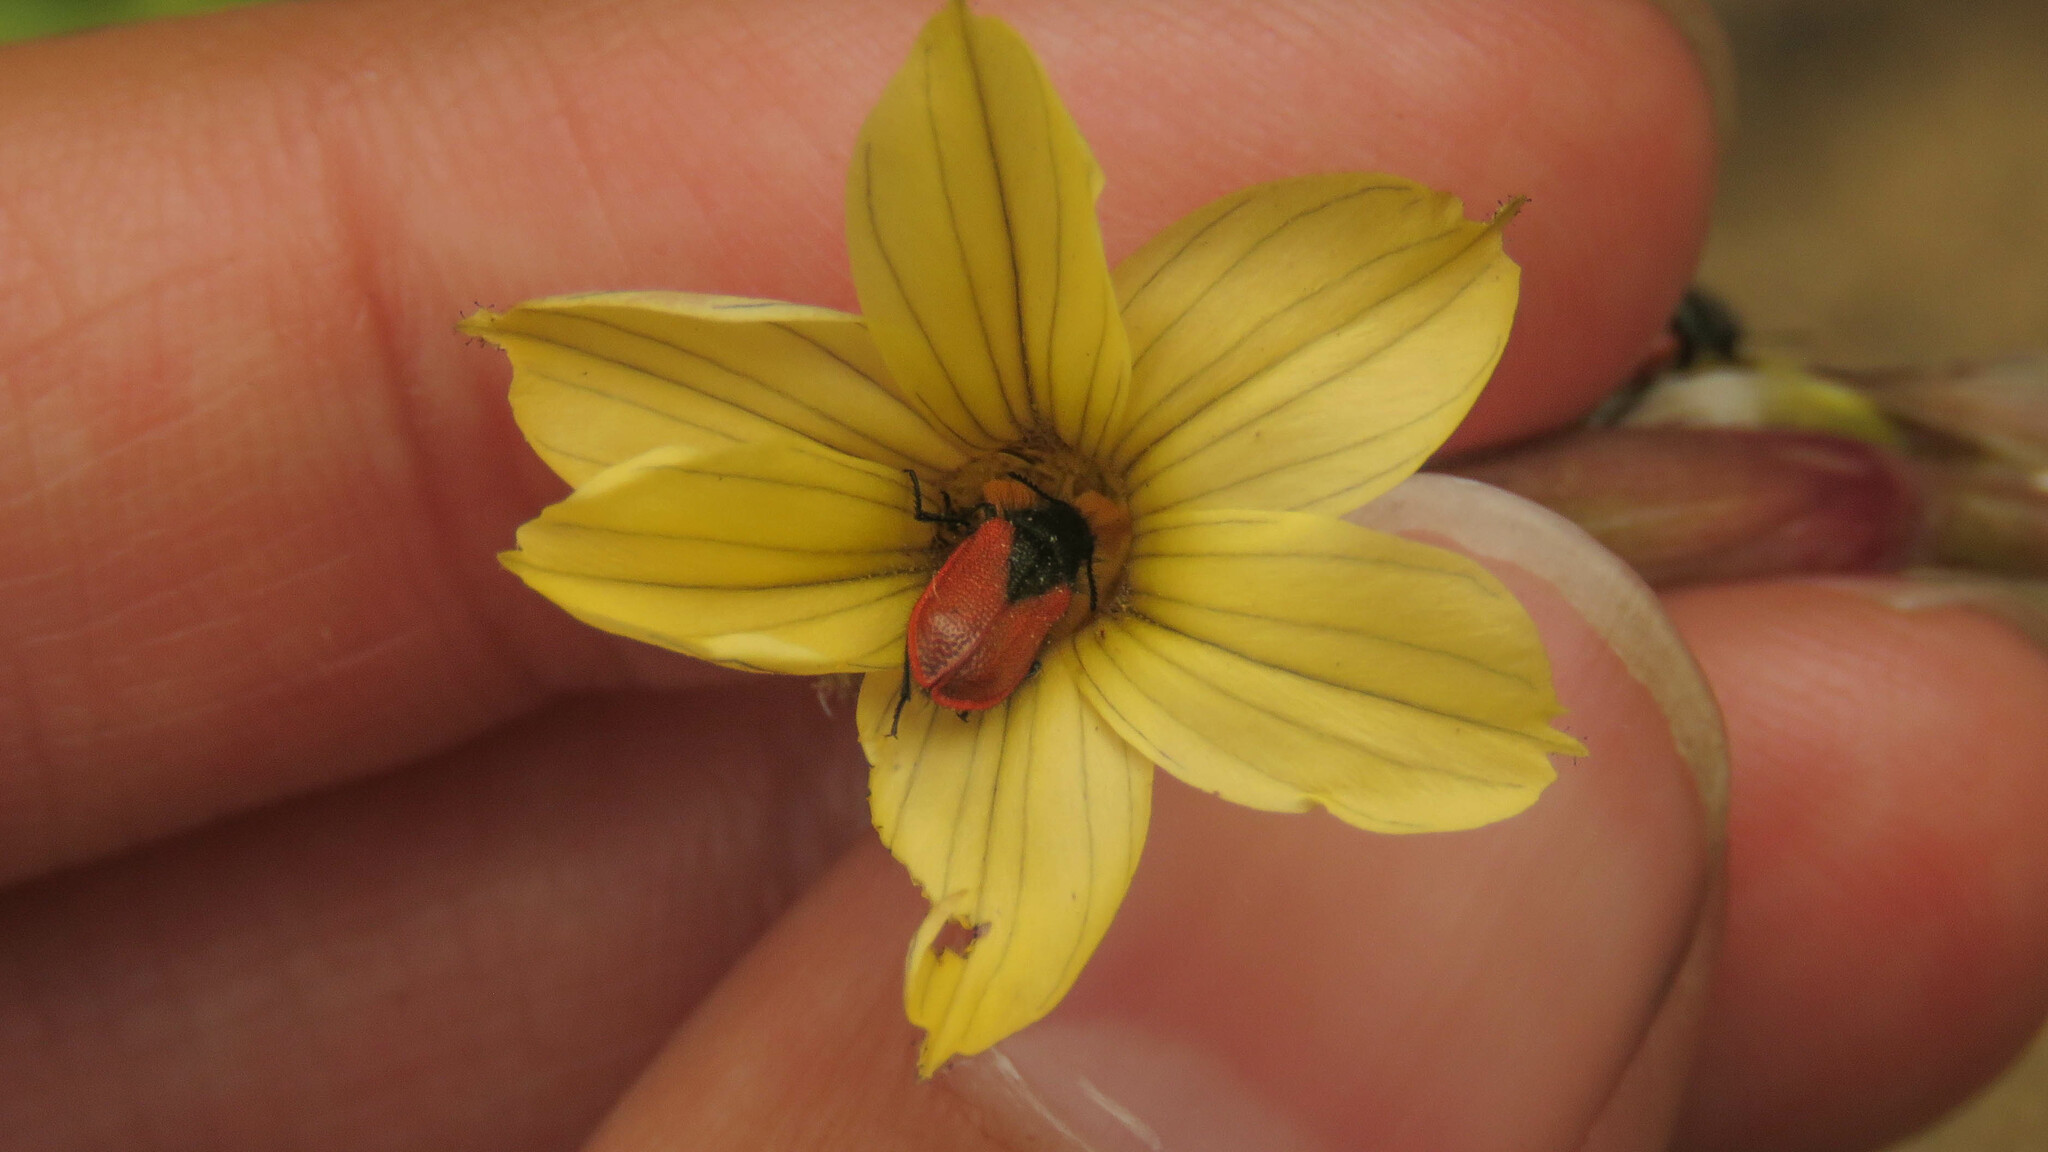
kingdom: Animalia
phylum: Arthropoda
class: Insecta
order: Coleoptera
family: Melyridae
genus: Arthrobrachus
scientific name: Arthrobrachus nigromaculatus
